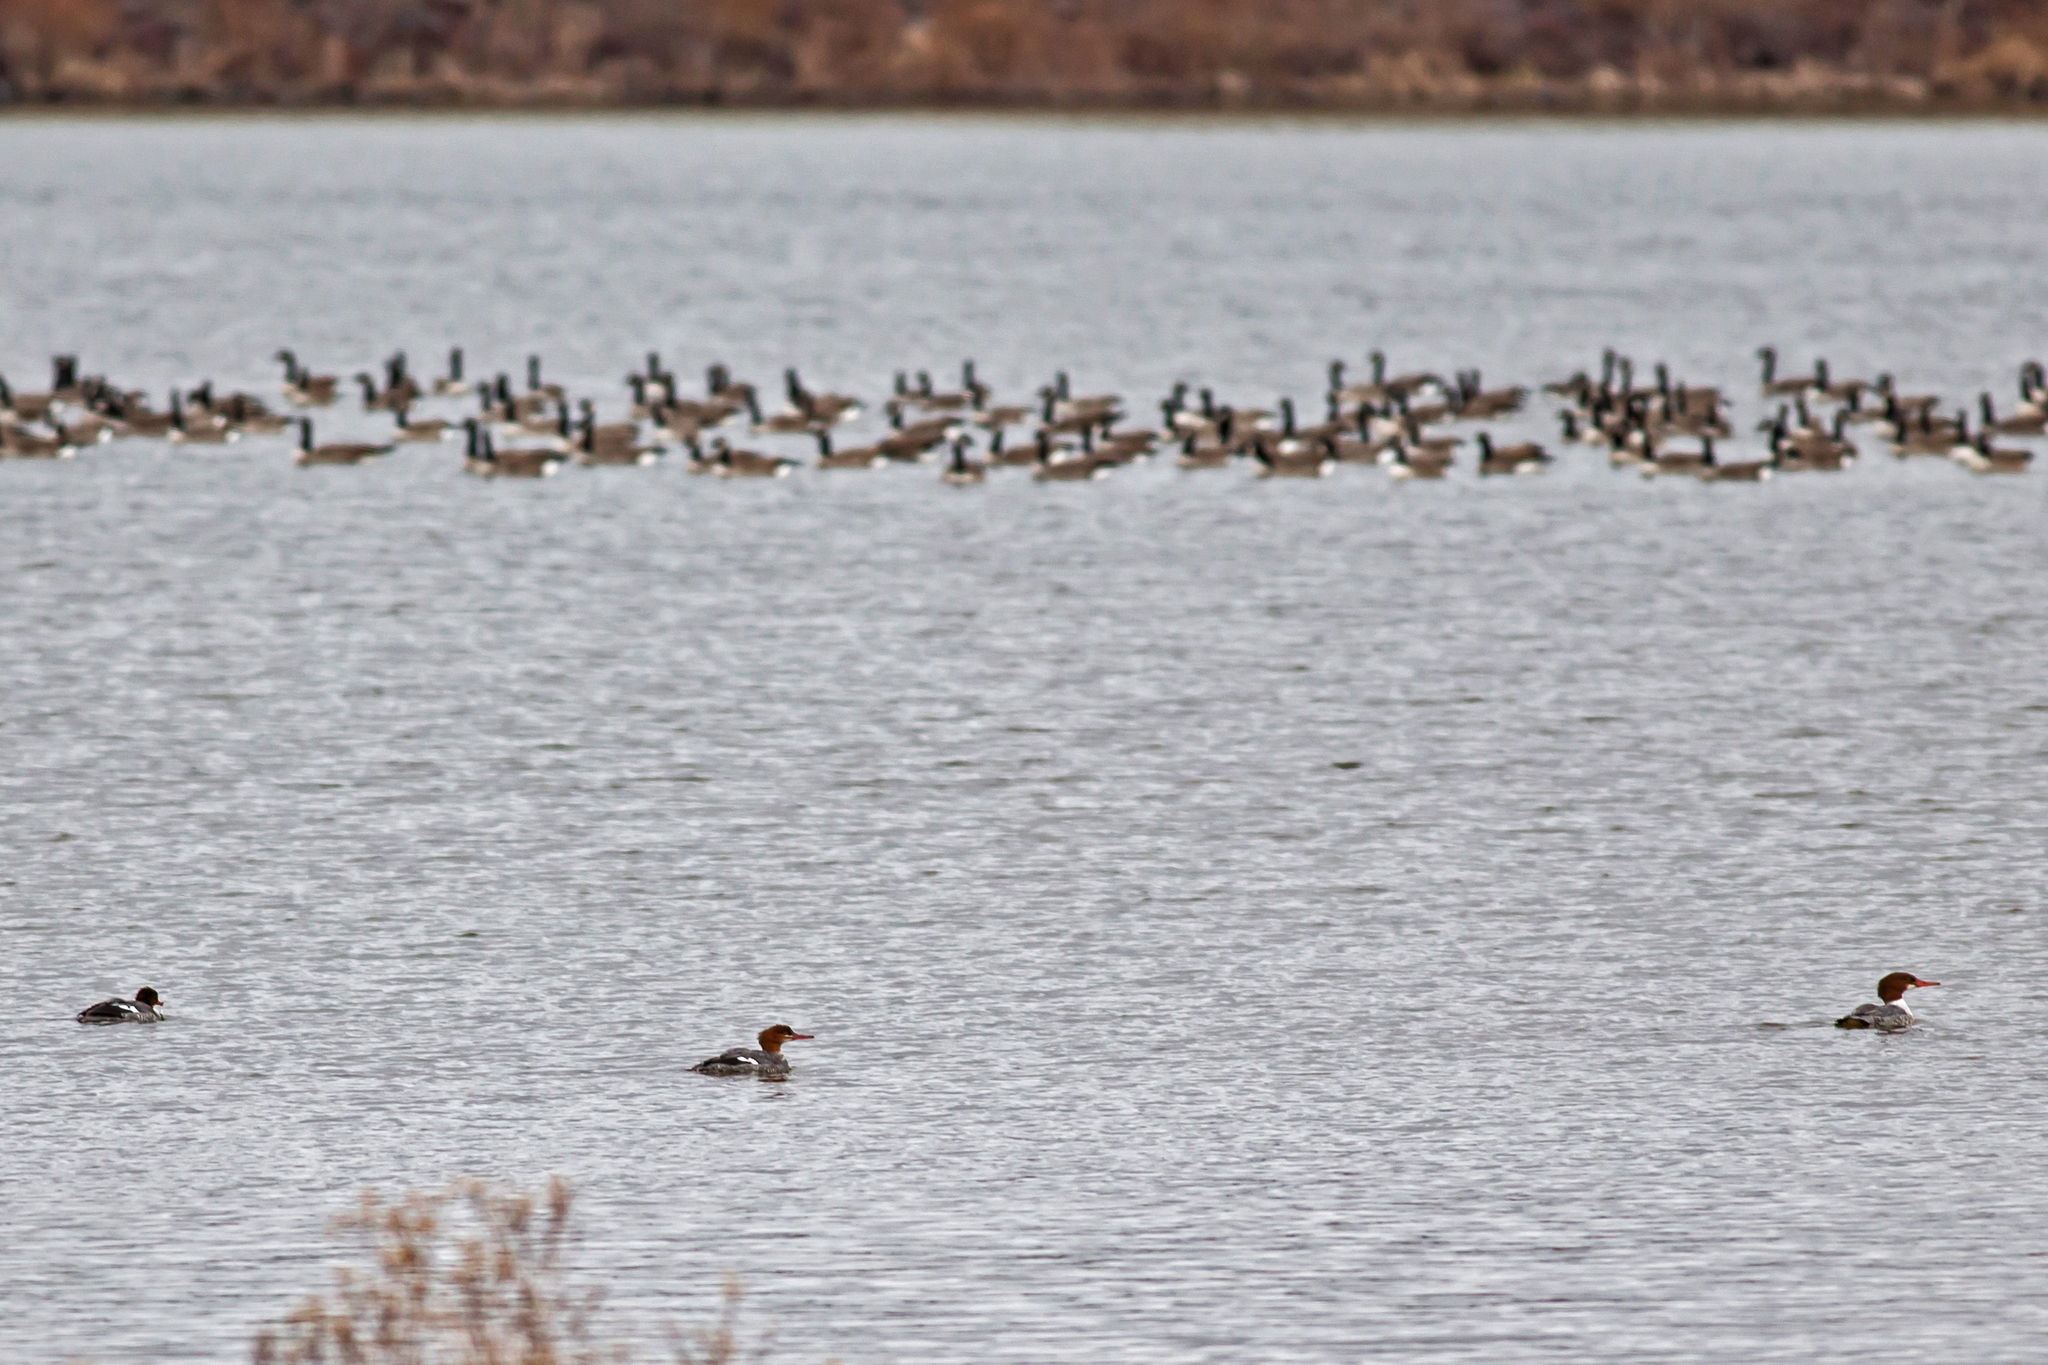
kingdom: Animalia
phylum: Chordata
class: Aves
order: Anseriformes
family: Anatidae
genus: Mergus
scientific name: Mergus merganser
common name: Common merganser
